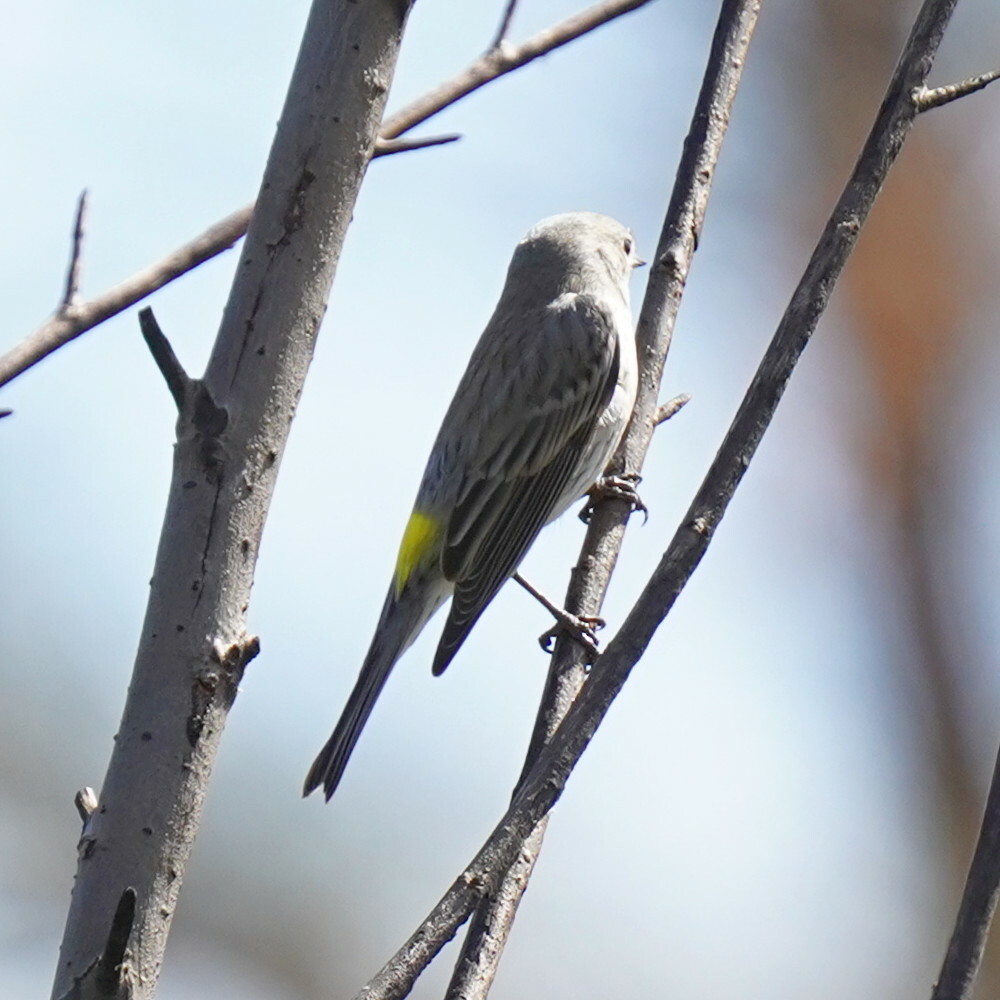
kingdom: Animalia
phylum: Chordata
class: Aves
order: Passeriformes
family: Parulidae
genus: Setophaga
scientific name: Setophaga coronata
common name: Myrtle warbler
